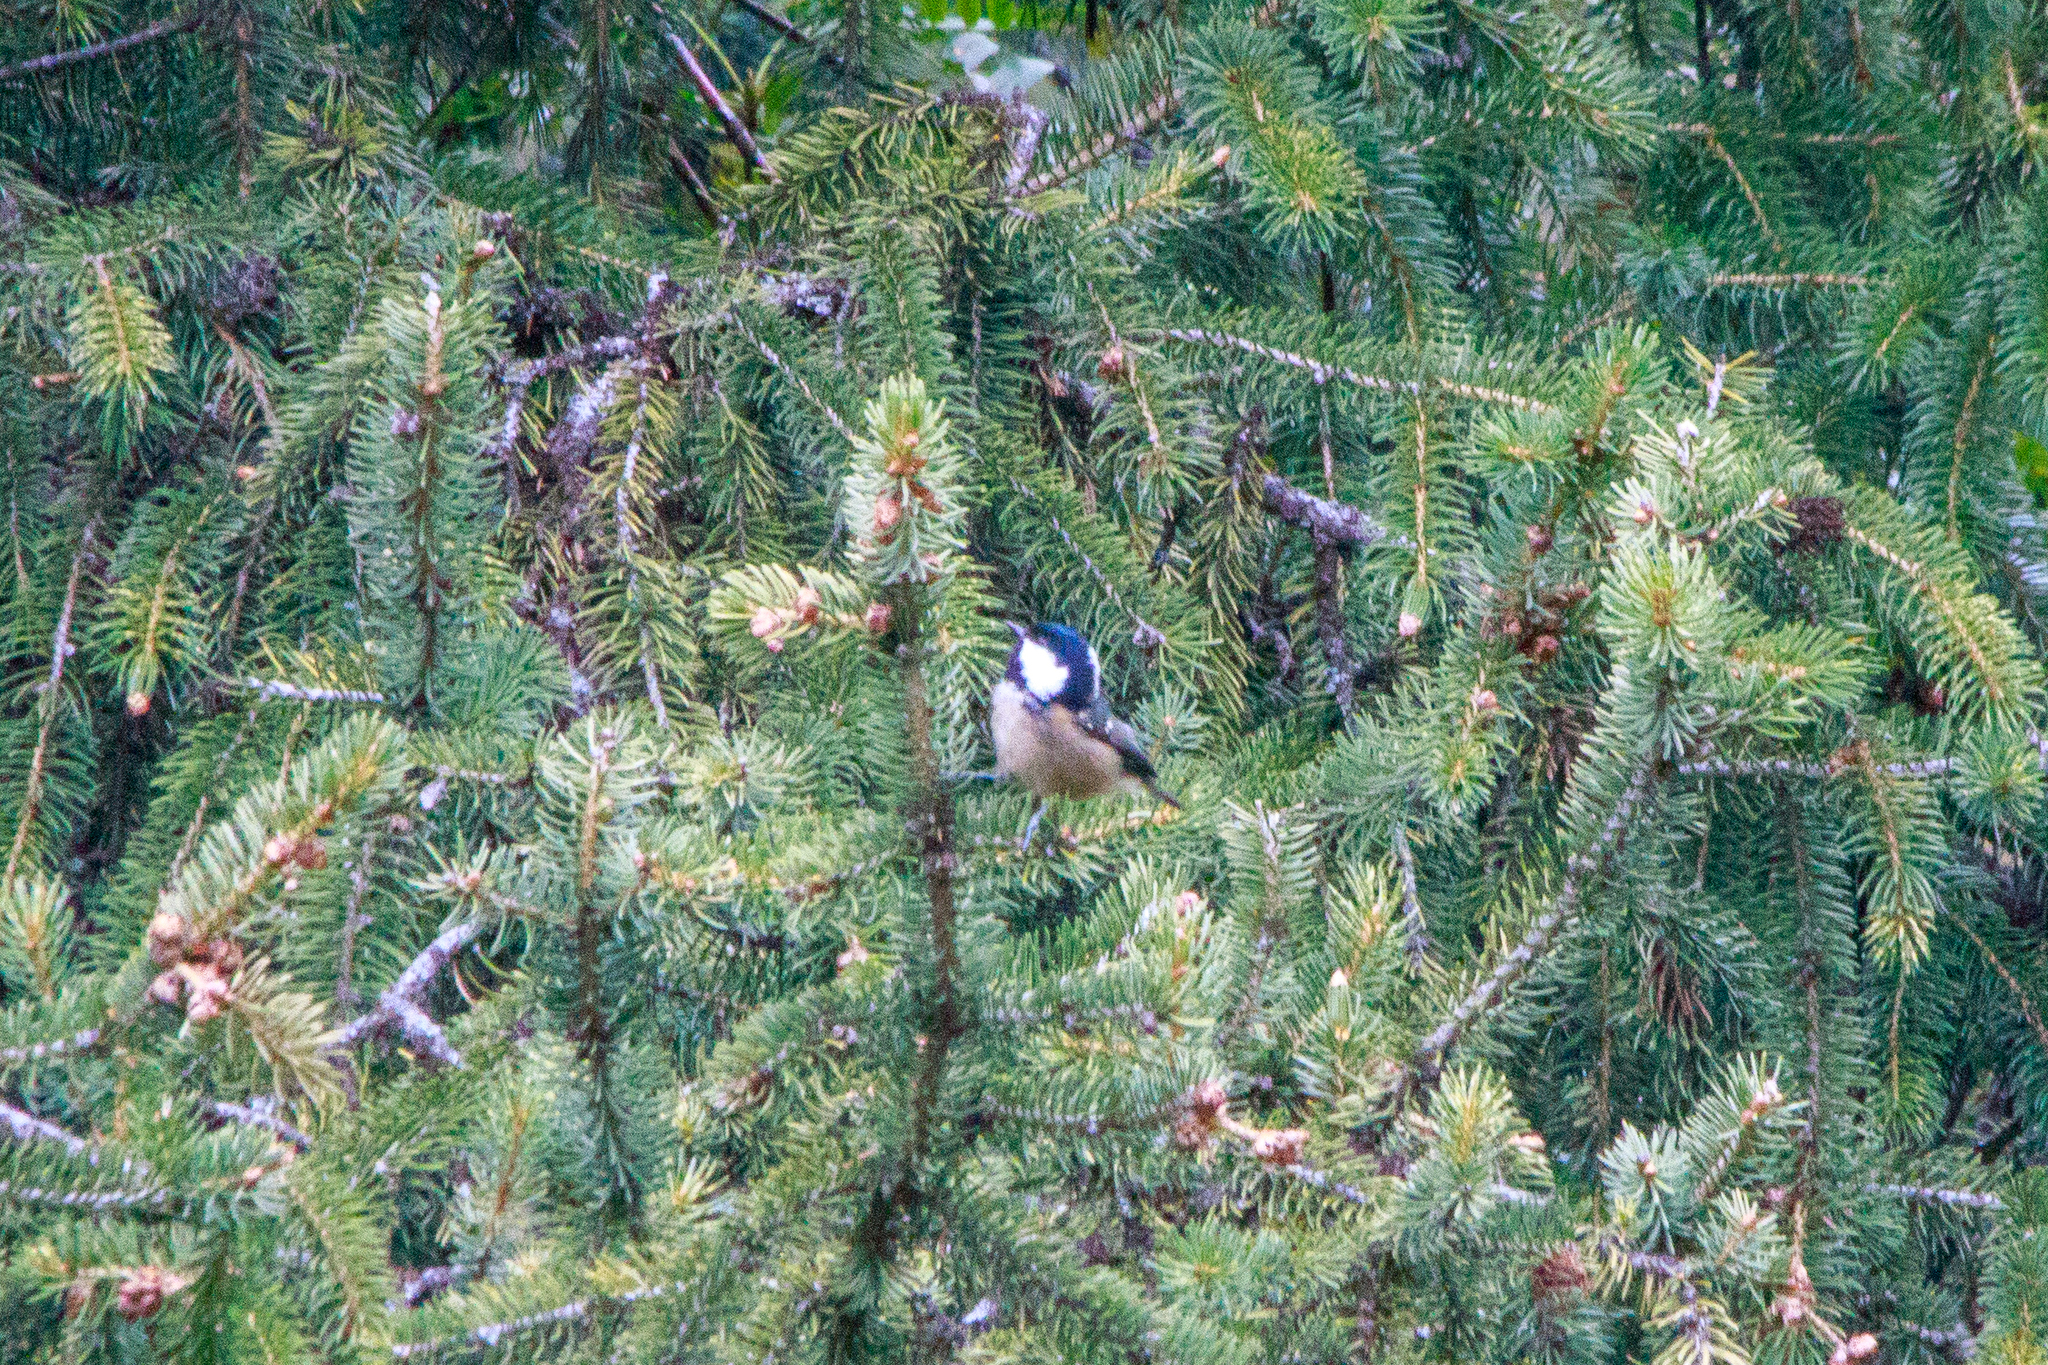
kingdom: Animalia
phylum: Chordata
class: Aves
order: Passeriformes
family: Paridae
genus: Periparus
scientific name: Periparus ater
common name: Coal tit
